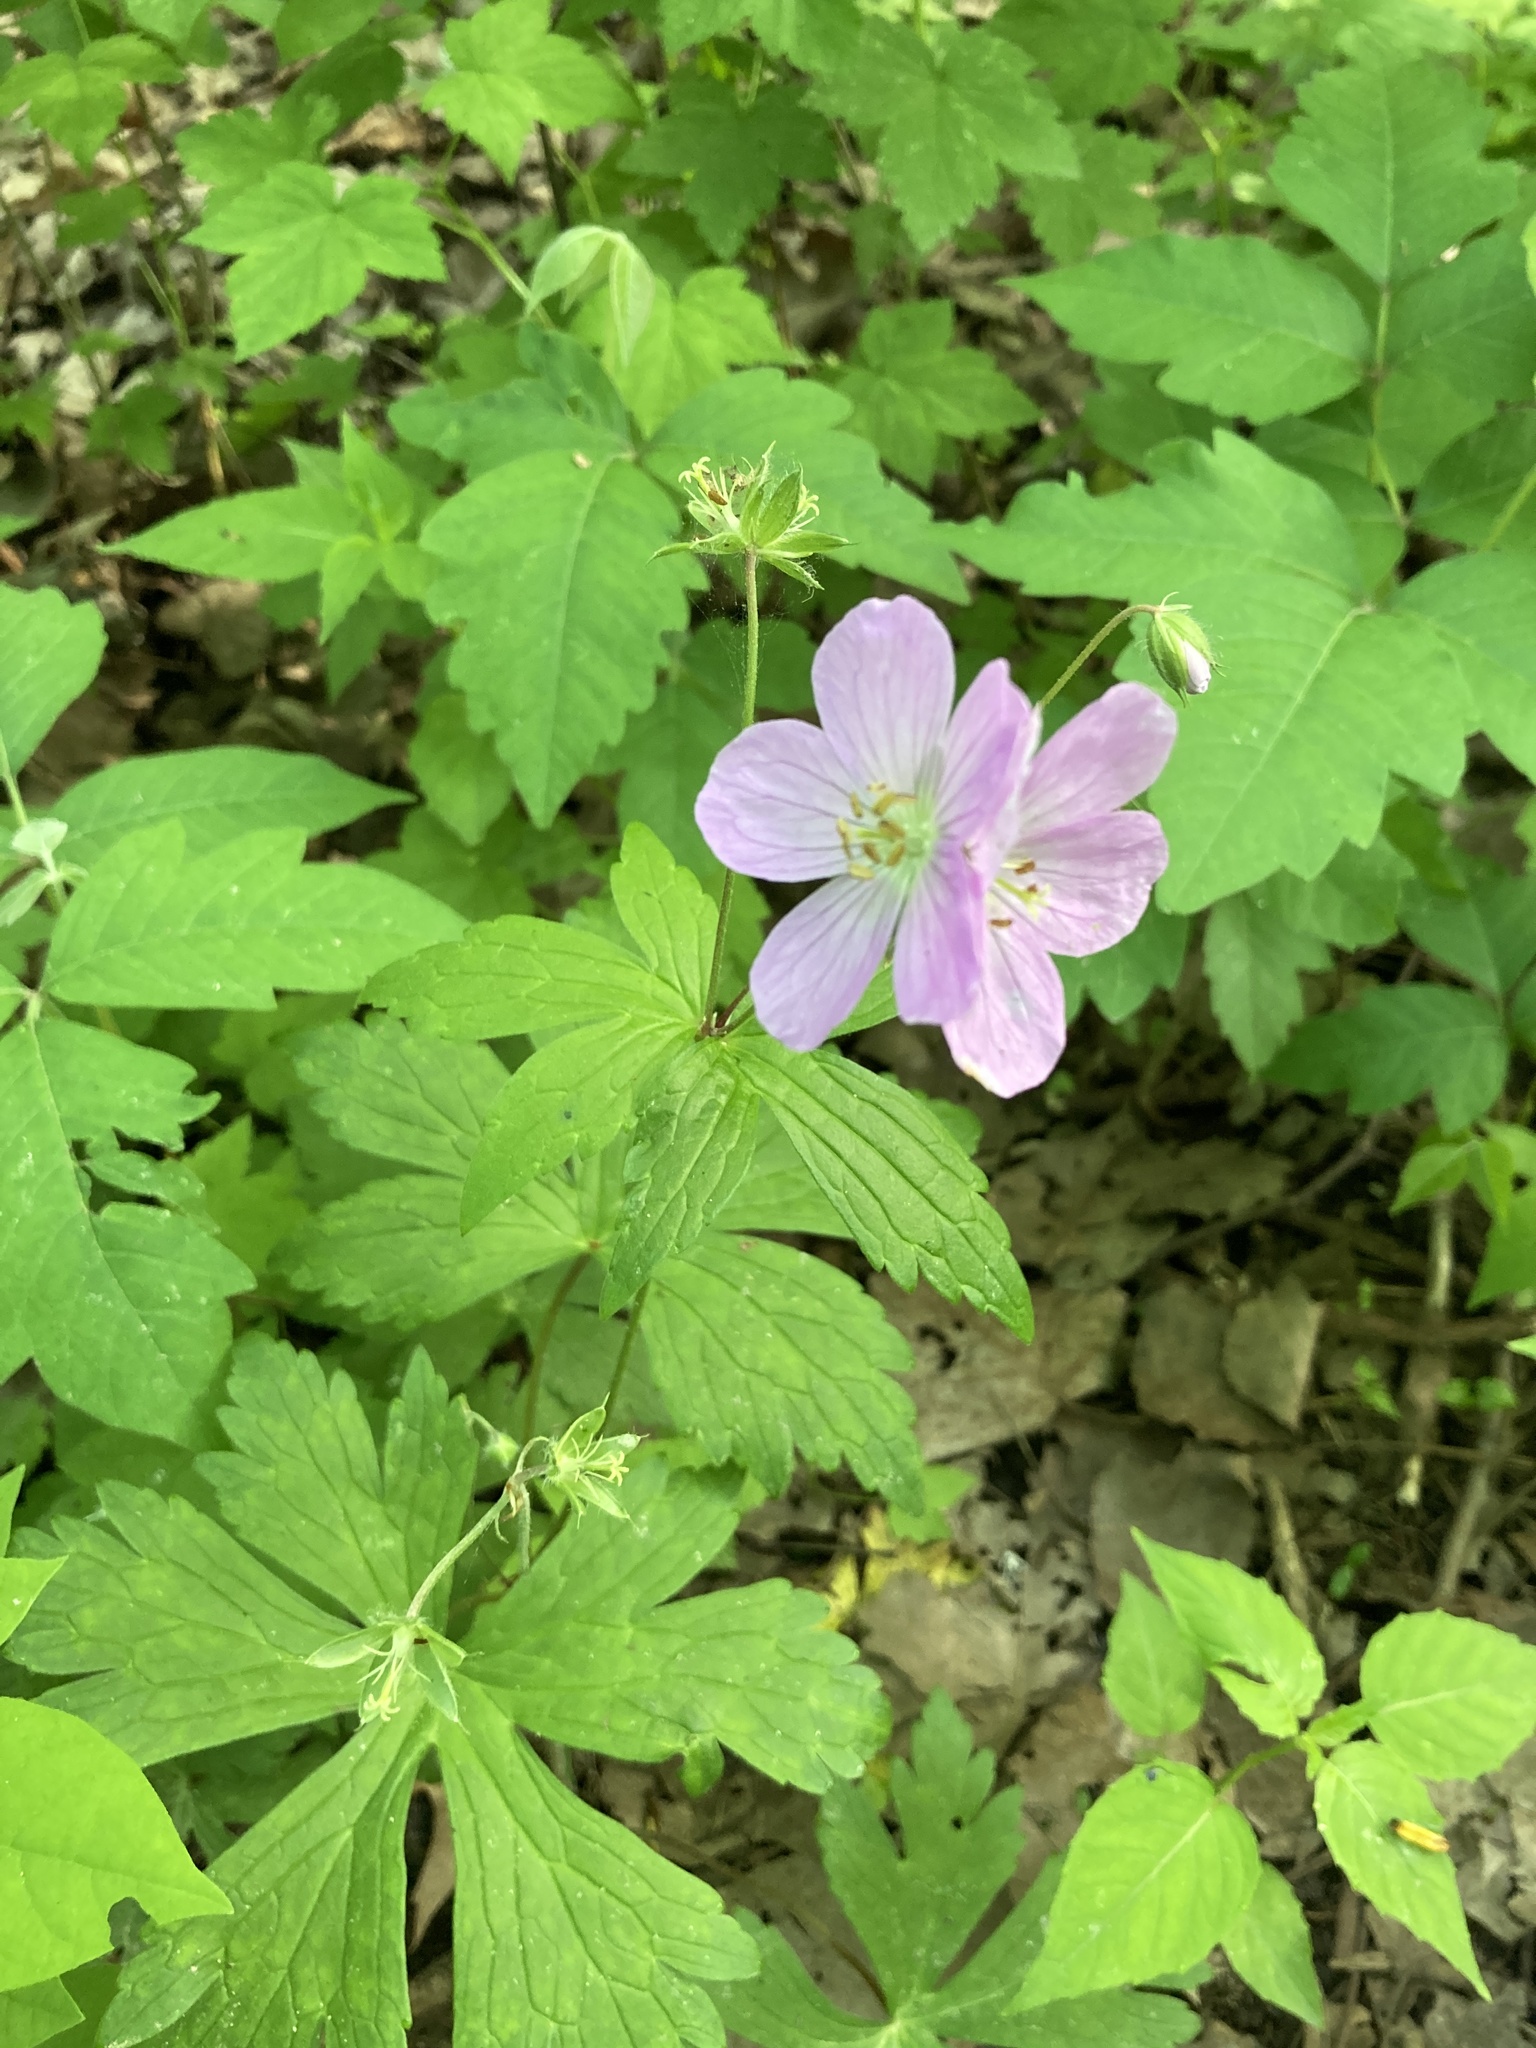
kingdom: Plantae
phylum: Tracheophyta
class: Magnoliopsida
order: Geraniales
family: Geraniaceae
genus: Geranium
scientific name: Geranium maculatum
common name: Spotted geranium
